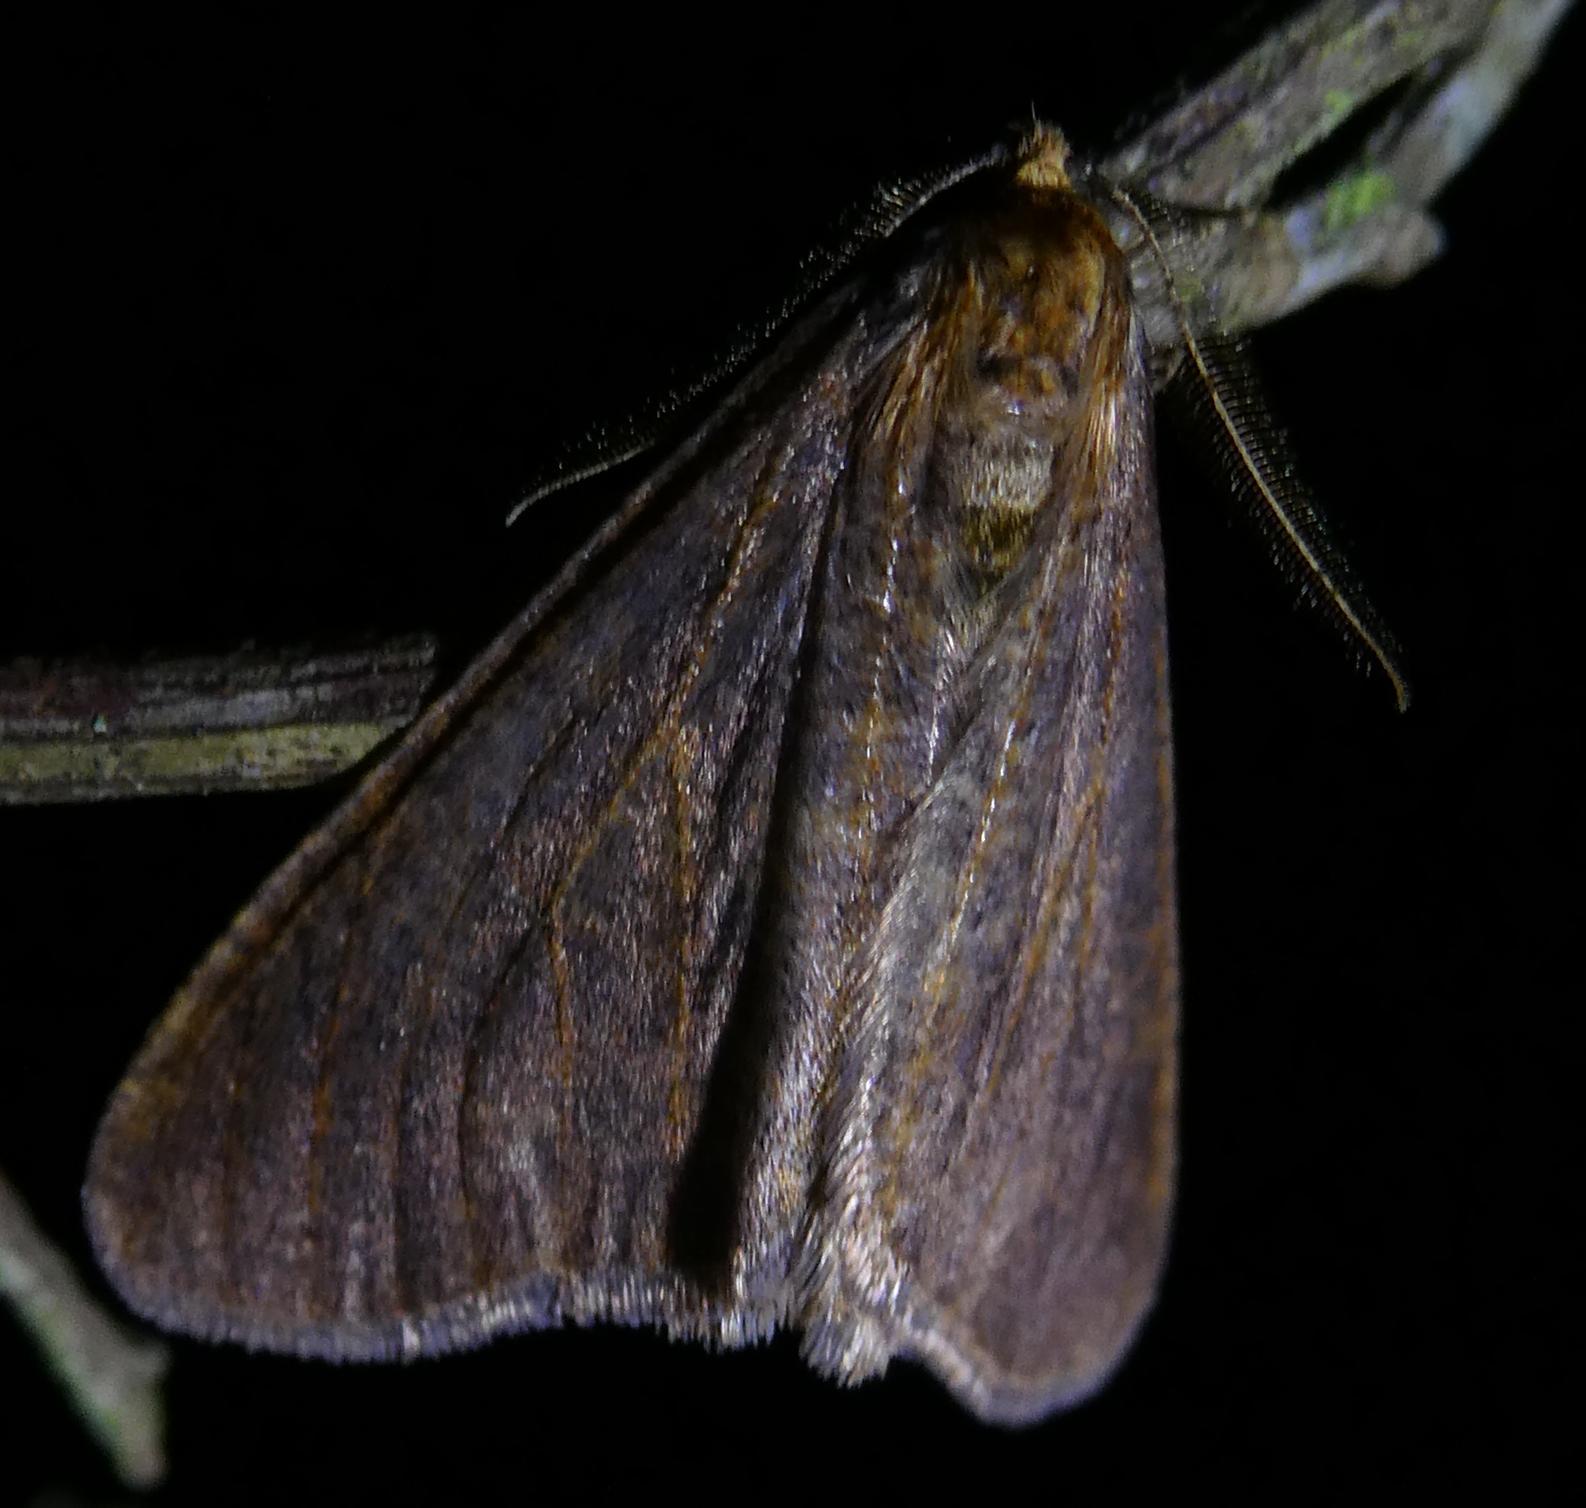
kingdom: Animalia
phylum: Arthropoda
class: Insecta
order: Lepidoptera
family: Geometridae
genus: Erannis
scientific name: Erannis defoliaria
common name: Mottled umber
